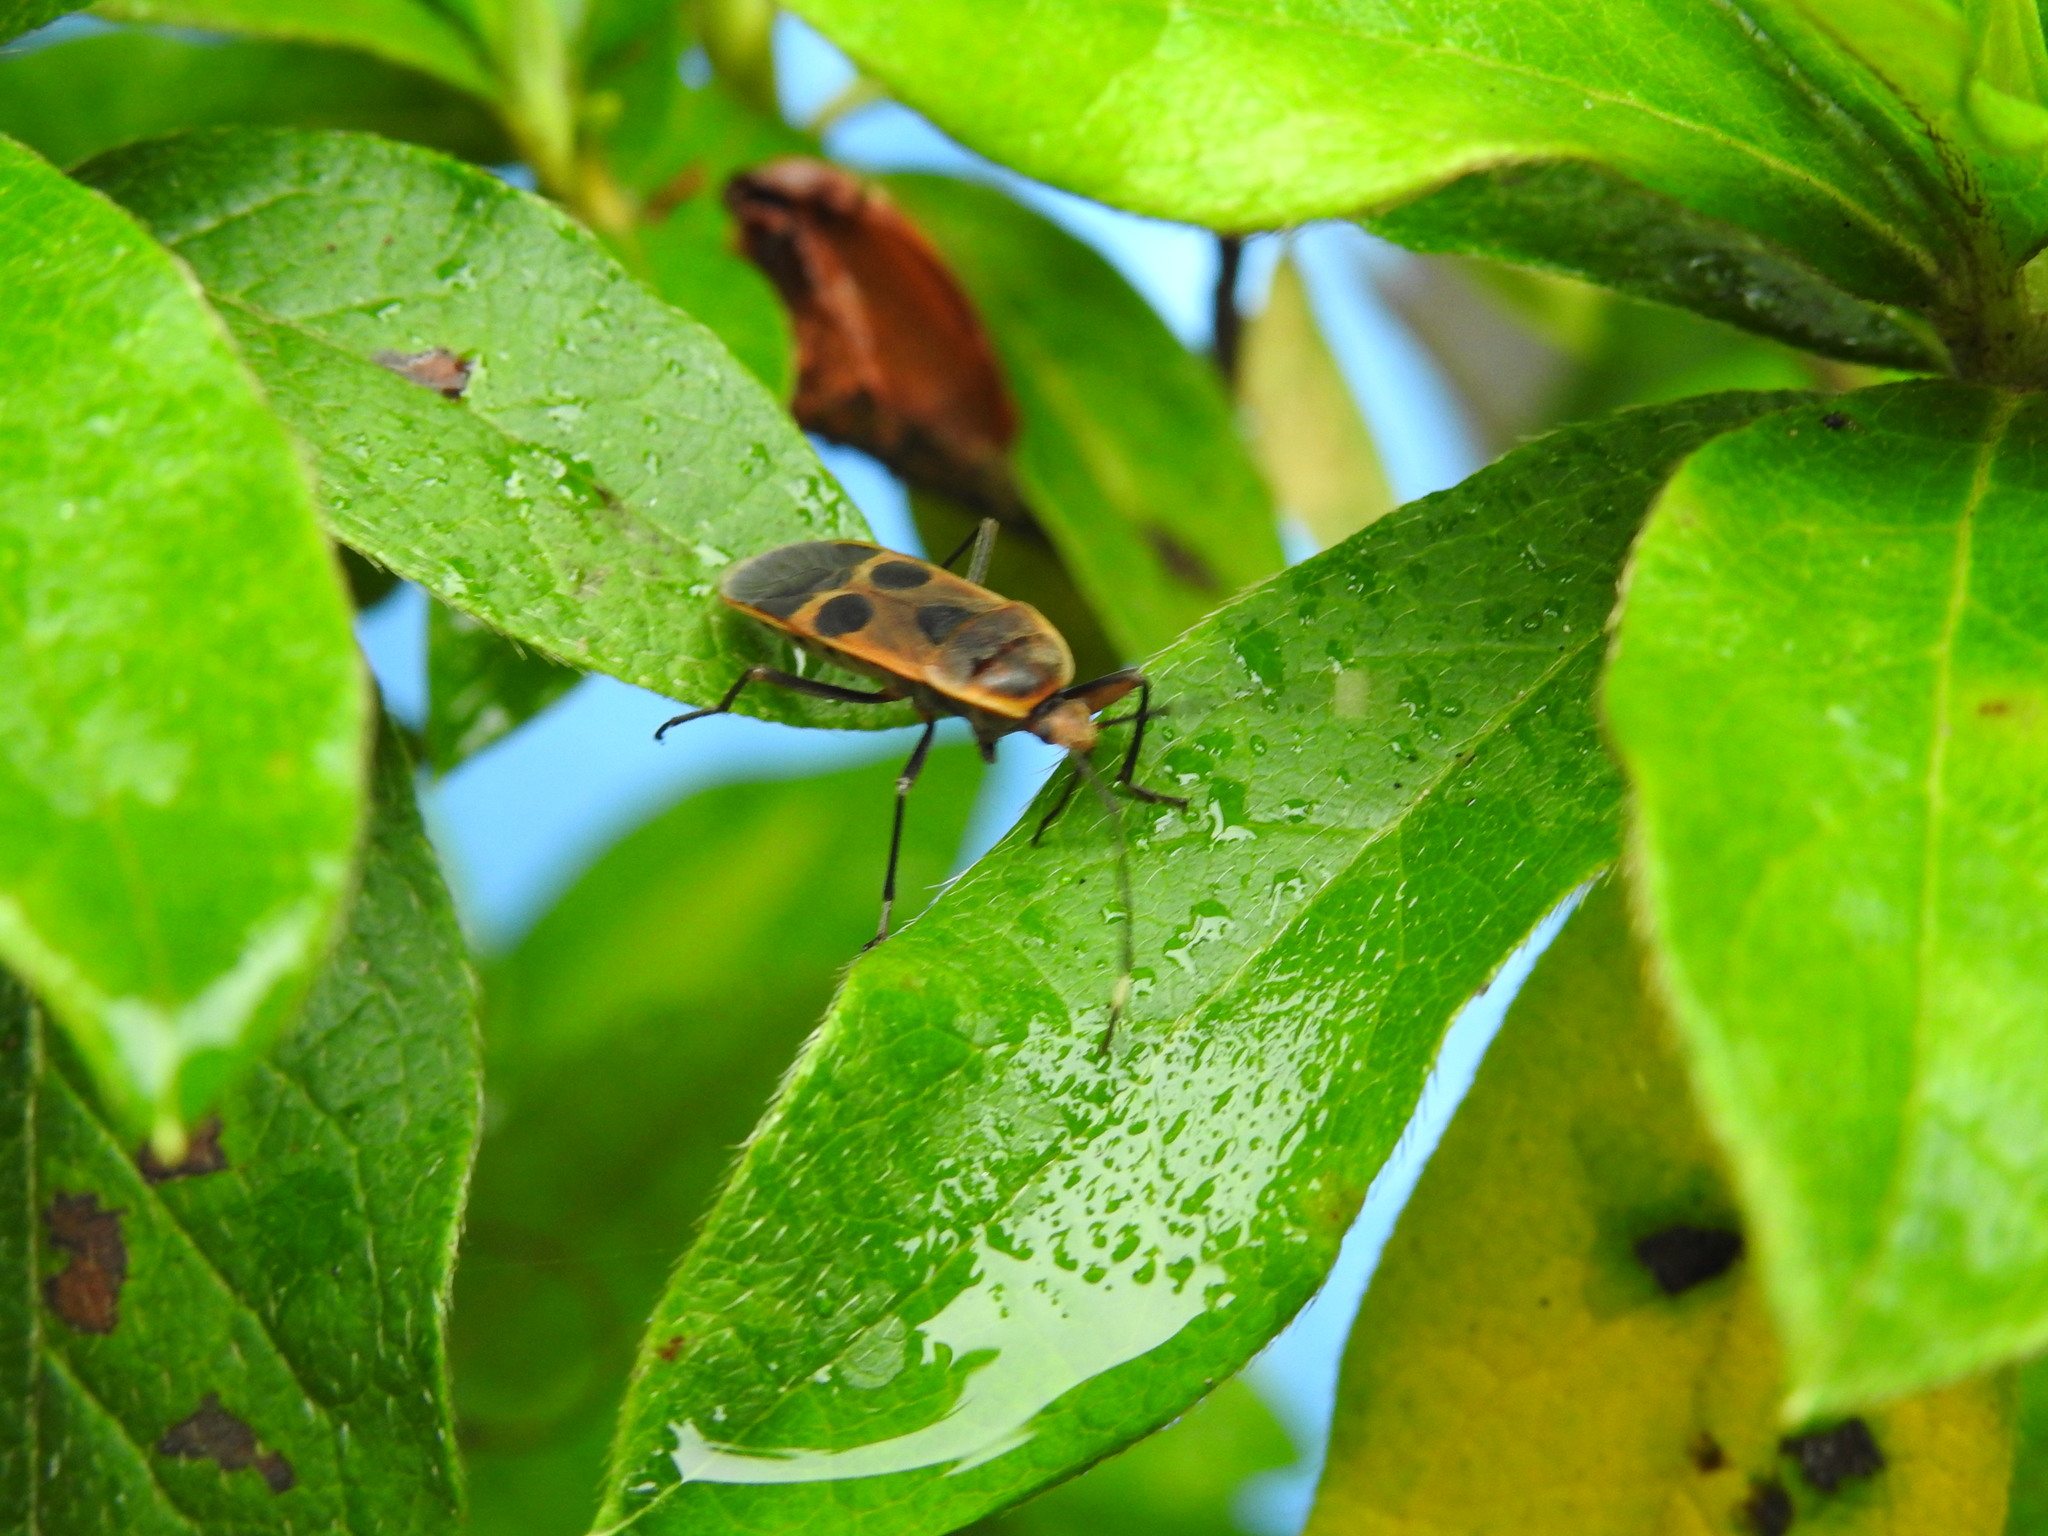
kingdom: Animalia
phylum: Arthropoda
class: Insecta
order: Hemiptera
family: Largidae
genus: Physopelta
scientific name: Physopelta gutta
